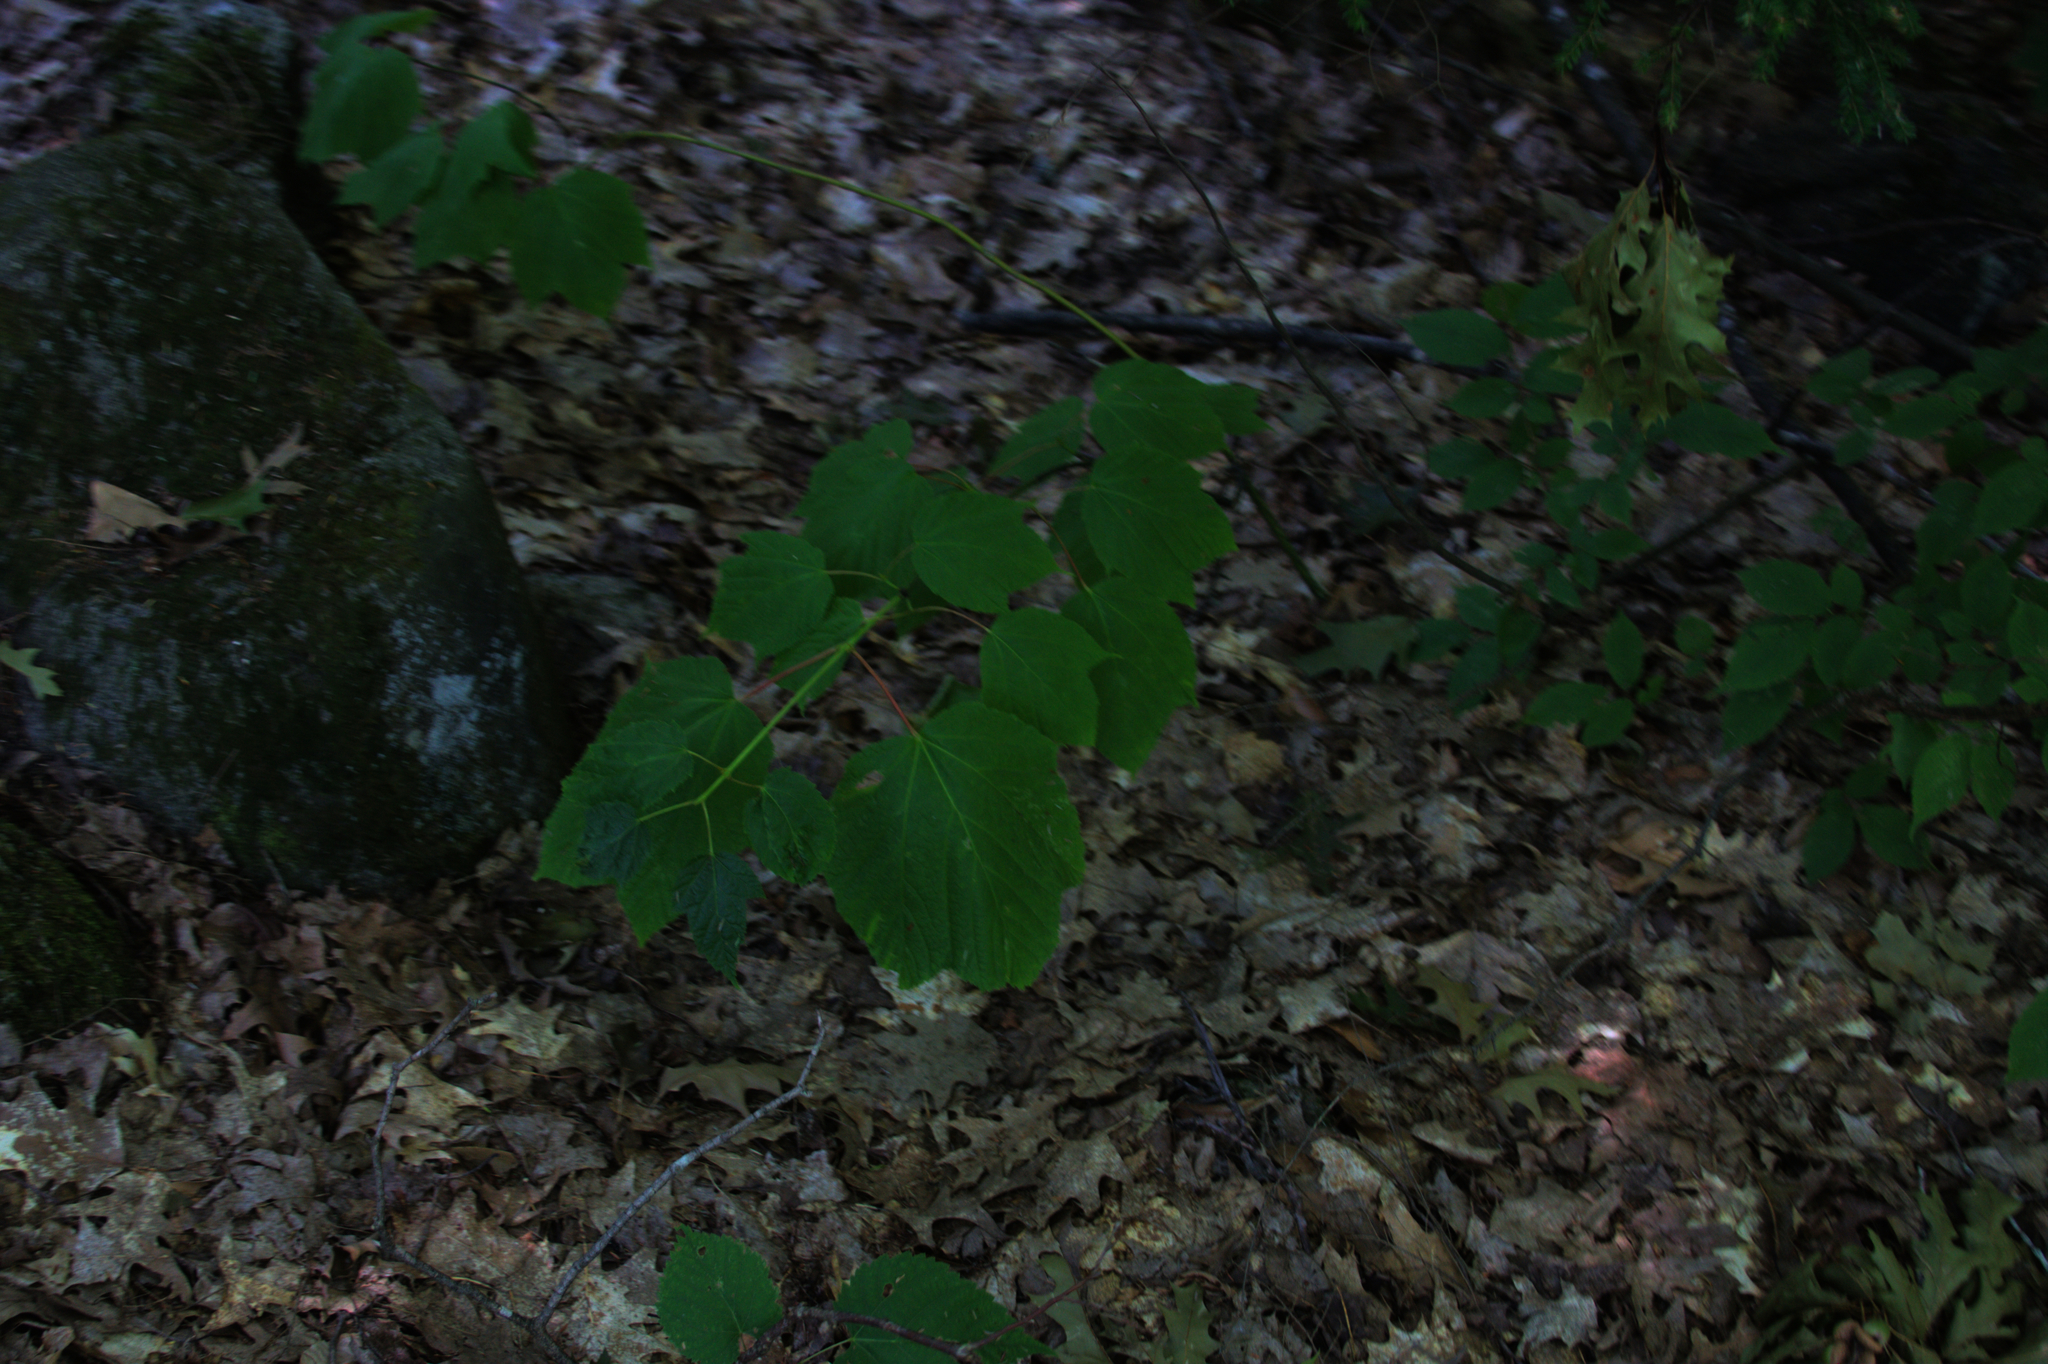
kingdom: Plantae
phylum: Tracheophyta
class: Magnoliopsida
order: Sapindales
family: Sapindaceae
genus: Acer
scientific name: Acer pensylvanicum
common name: Moosewood
